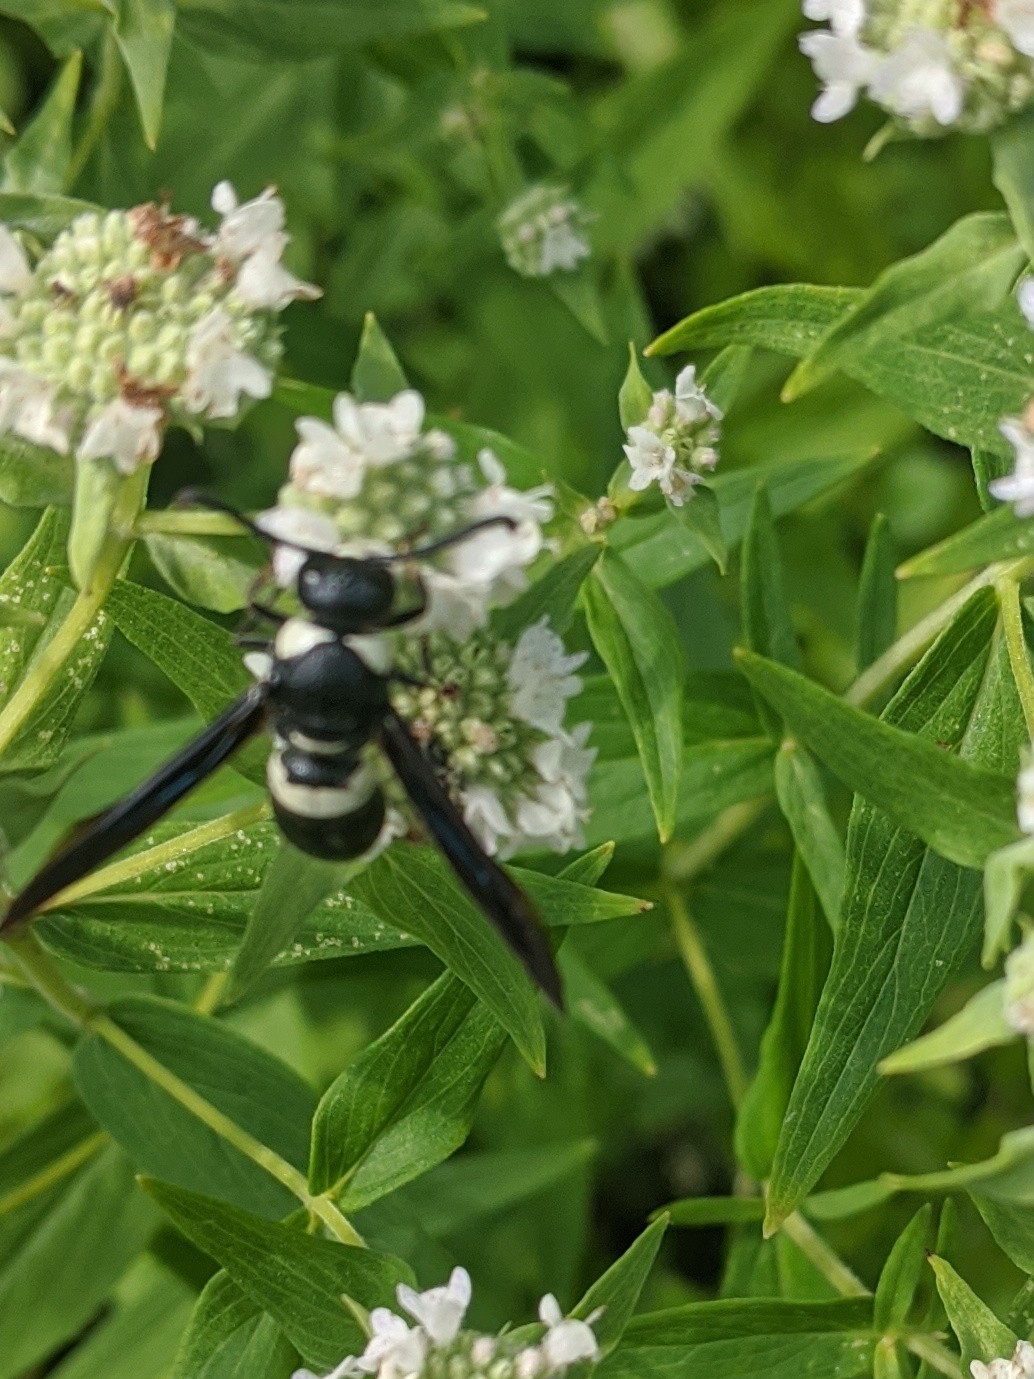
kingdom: Animalia
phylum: Arthropoda
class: Insecta
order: Hymenoptera
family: Eumenidae
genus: Monobia
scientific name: Monobia quadridens
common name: Four-toothed mason wasp
